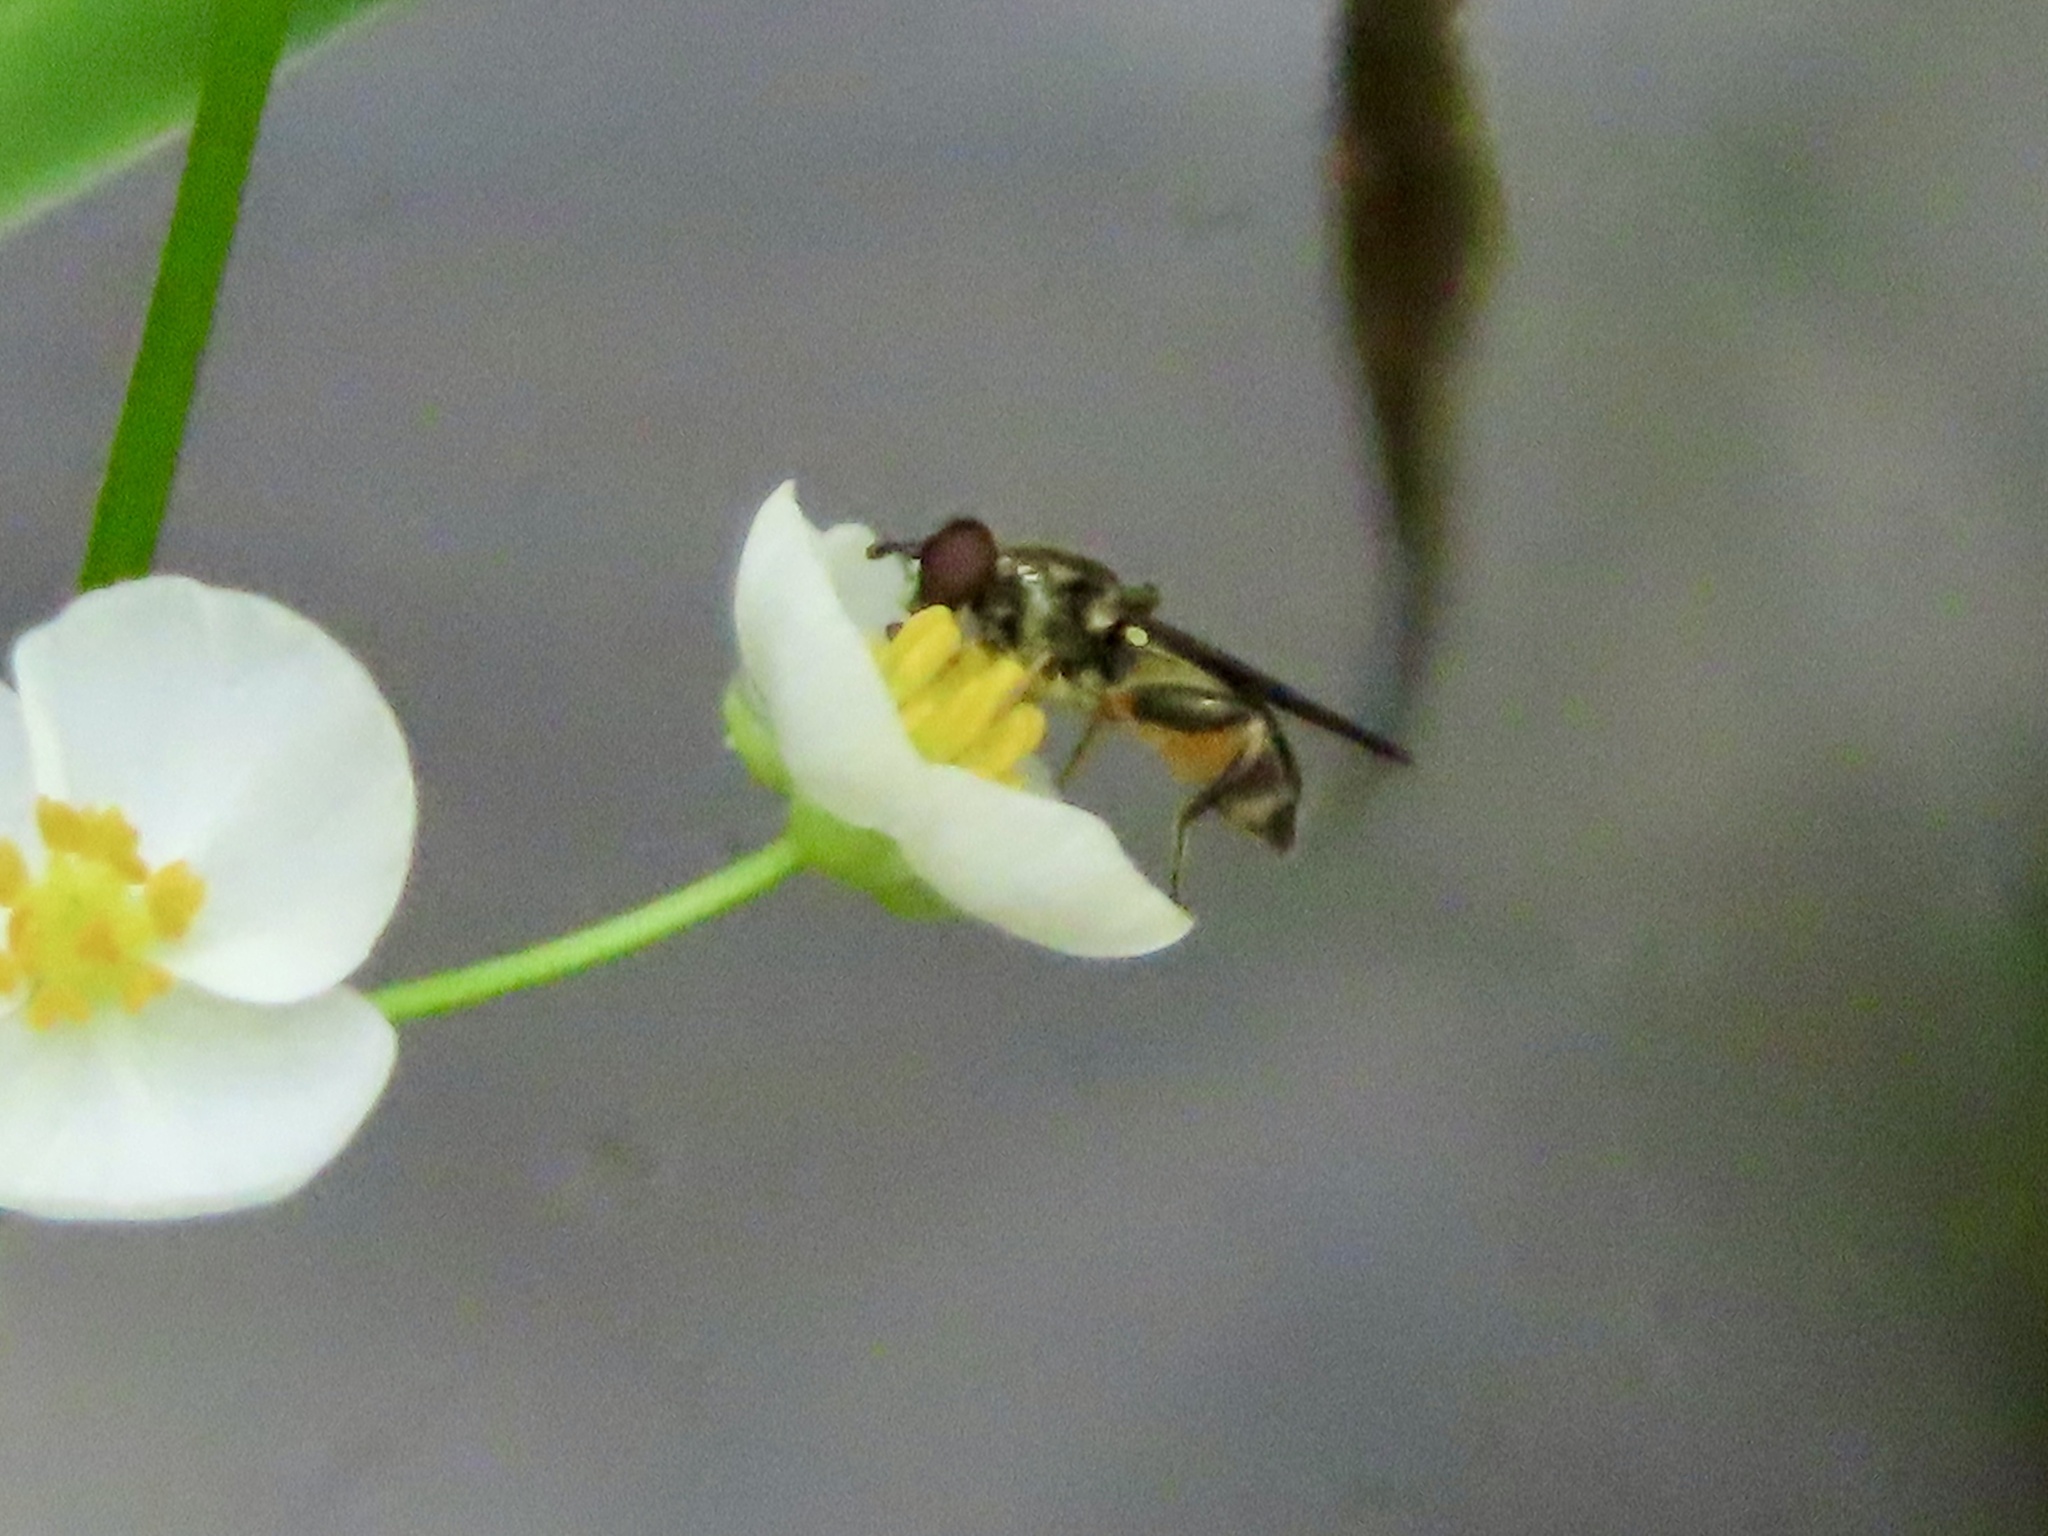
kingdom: Animalia
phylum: Arthropoda
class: Insecta
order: Diptera
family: Syrphidae
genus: Chalcosyrphus
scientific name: Chalcosyrphus metallicus
